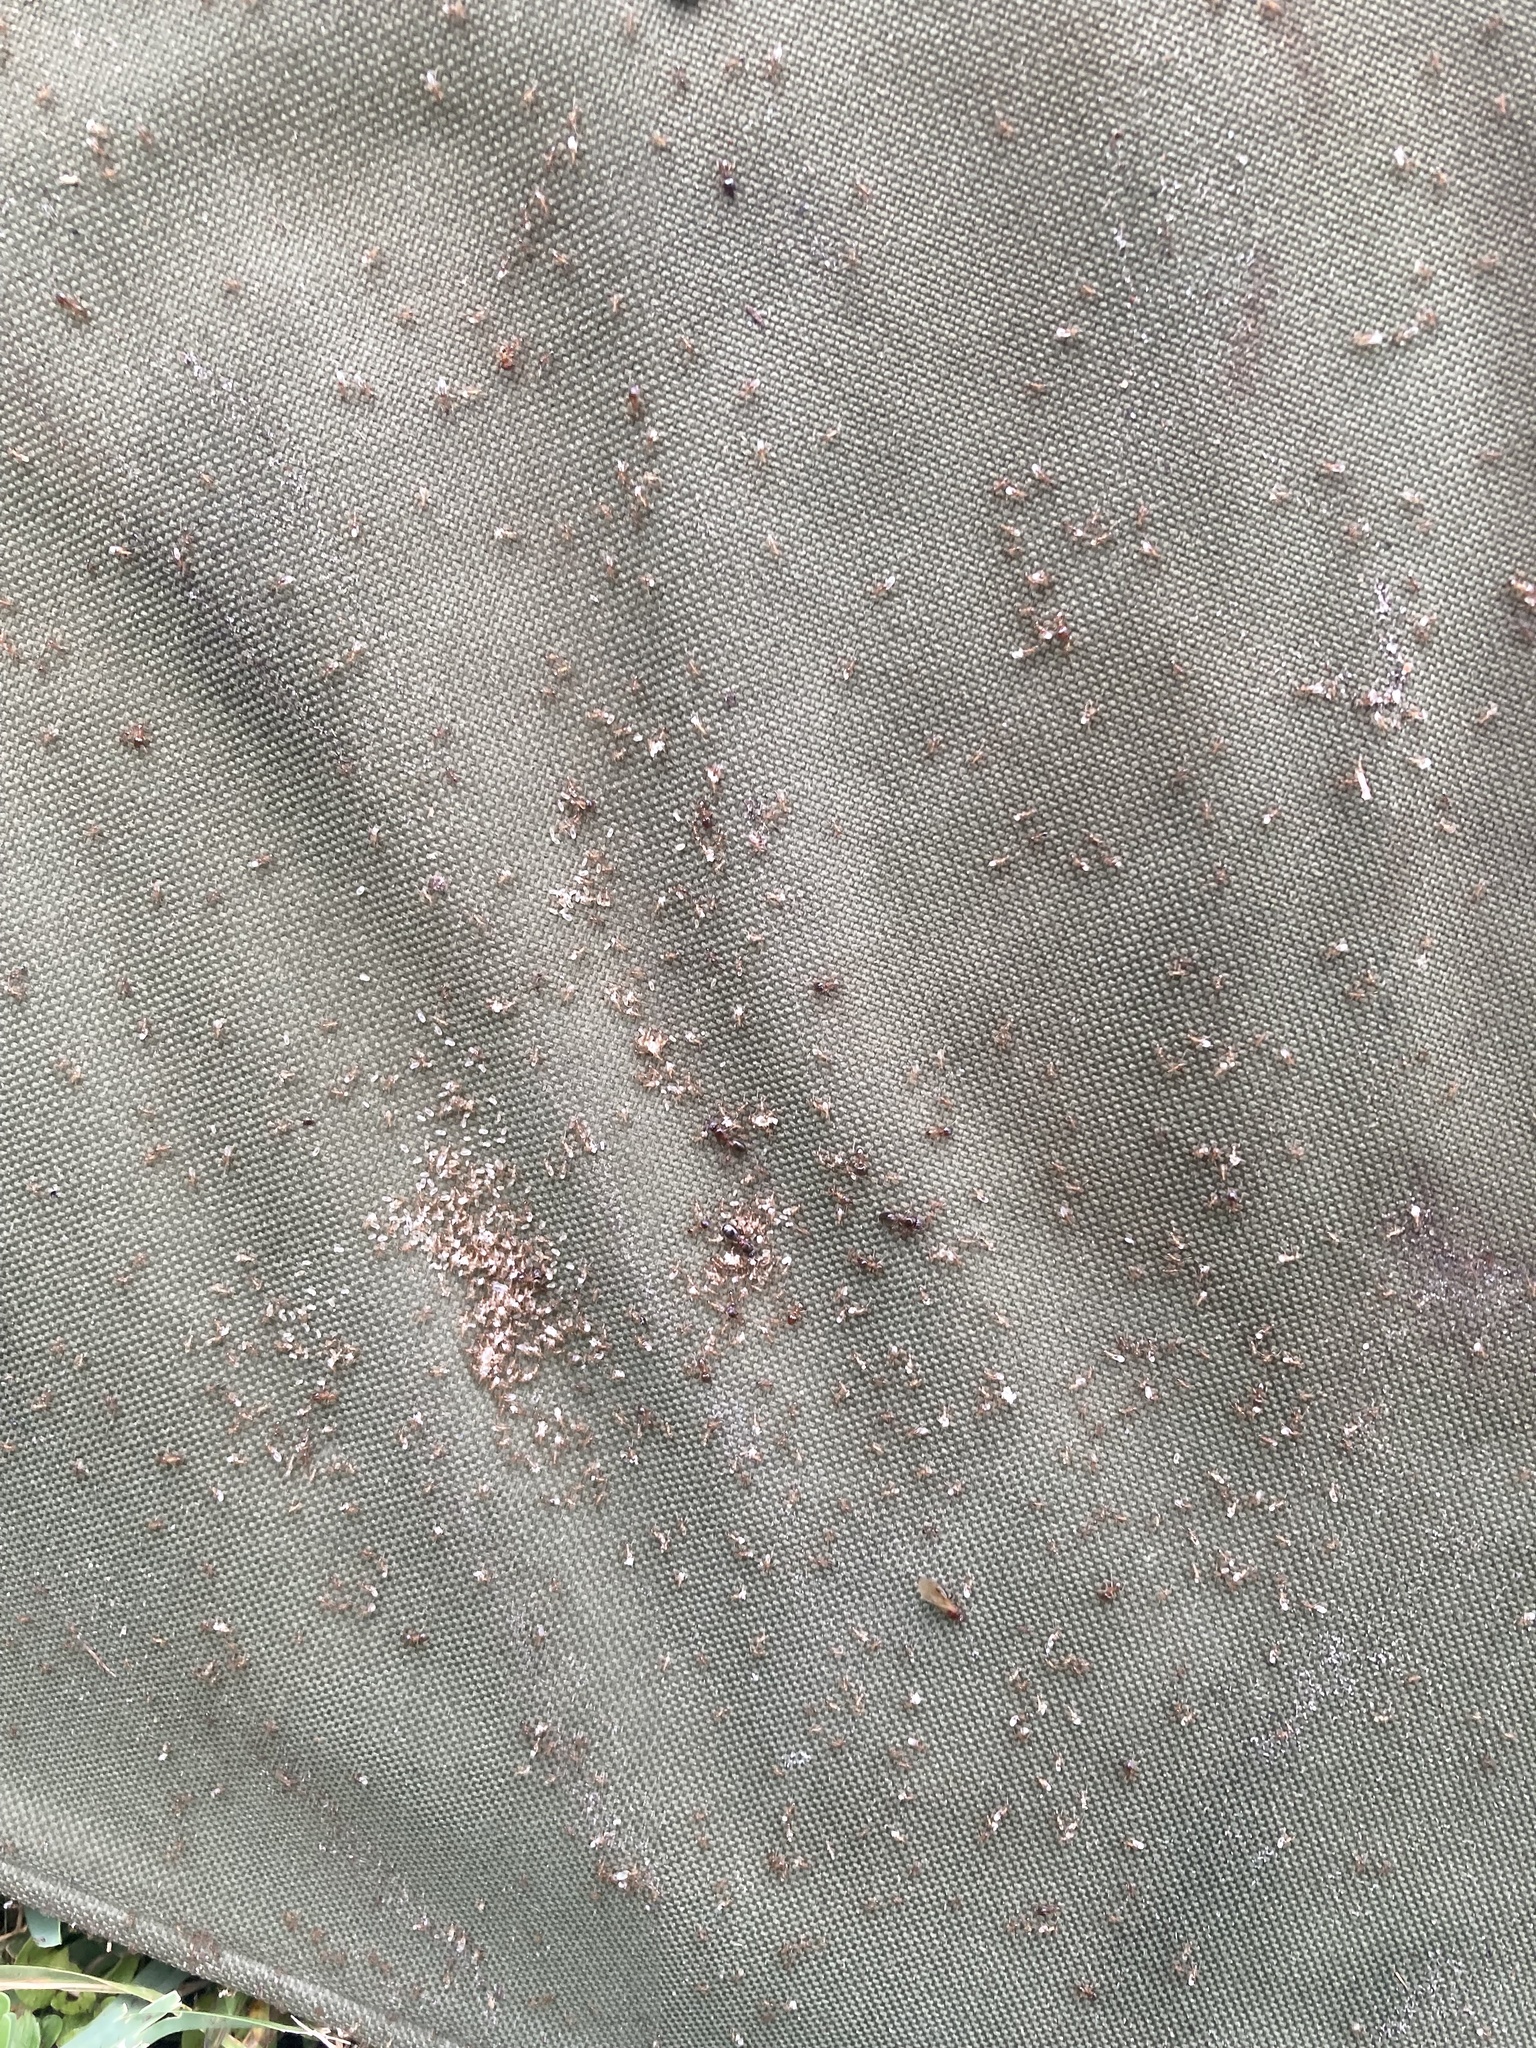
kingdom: Animalia
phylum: Arthropoda
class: Insecta
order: Hymenoptera
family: Formicidae
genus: Pheidole
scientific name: Pheidole megacephala
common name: Bigheaded ant
